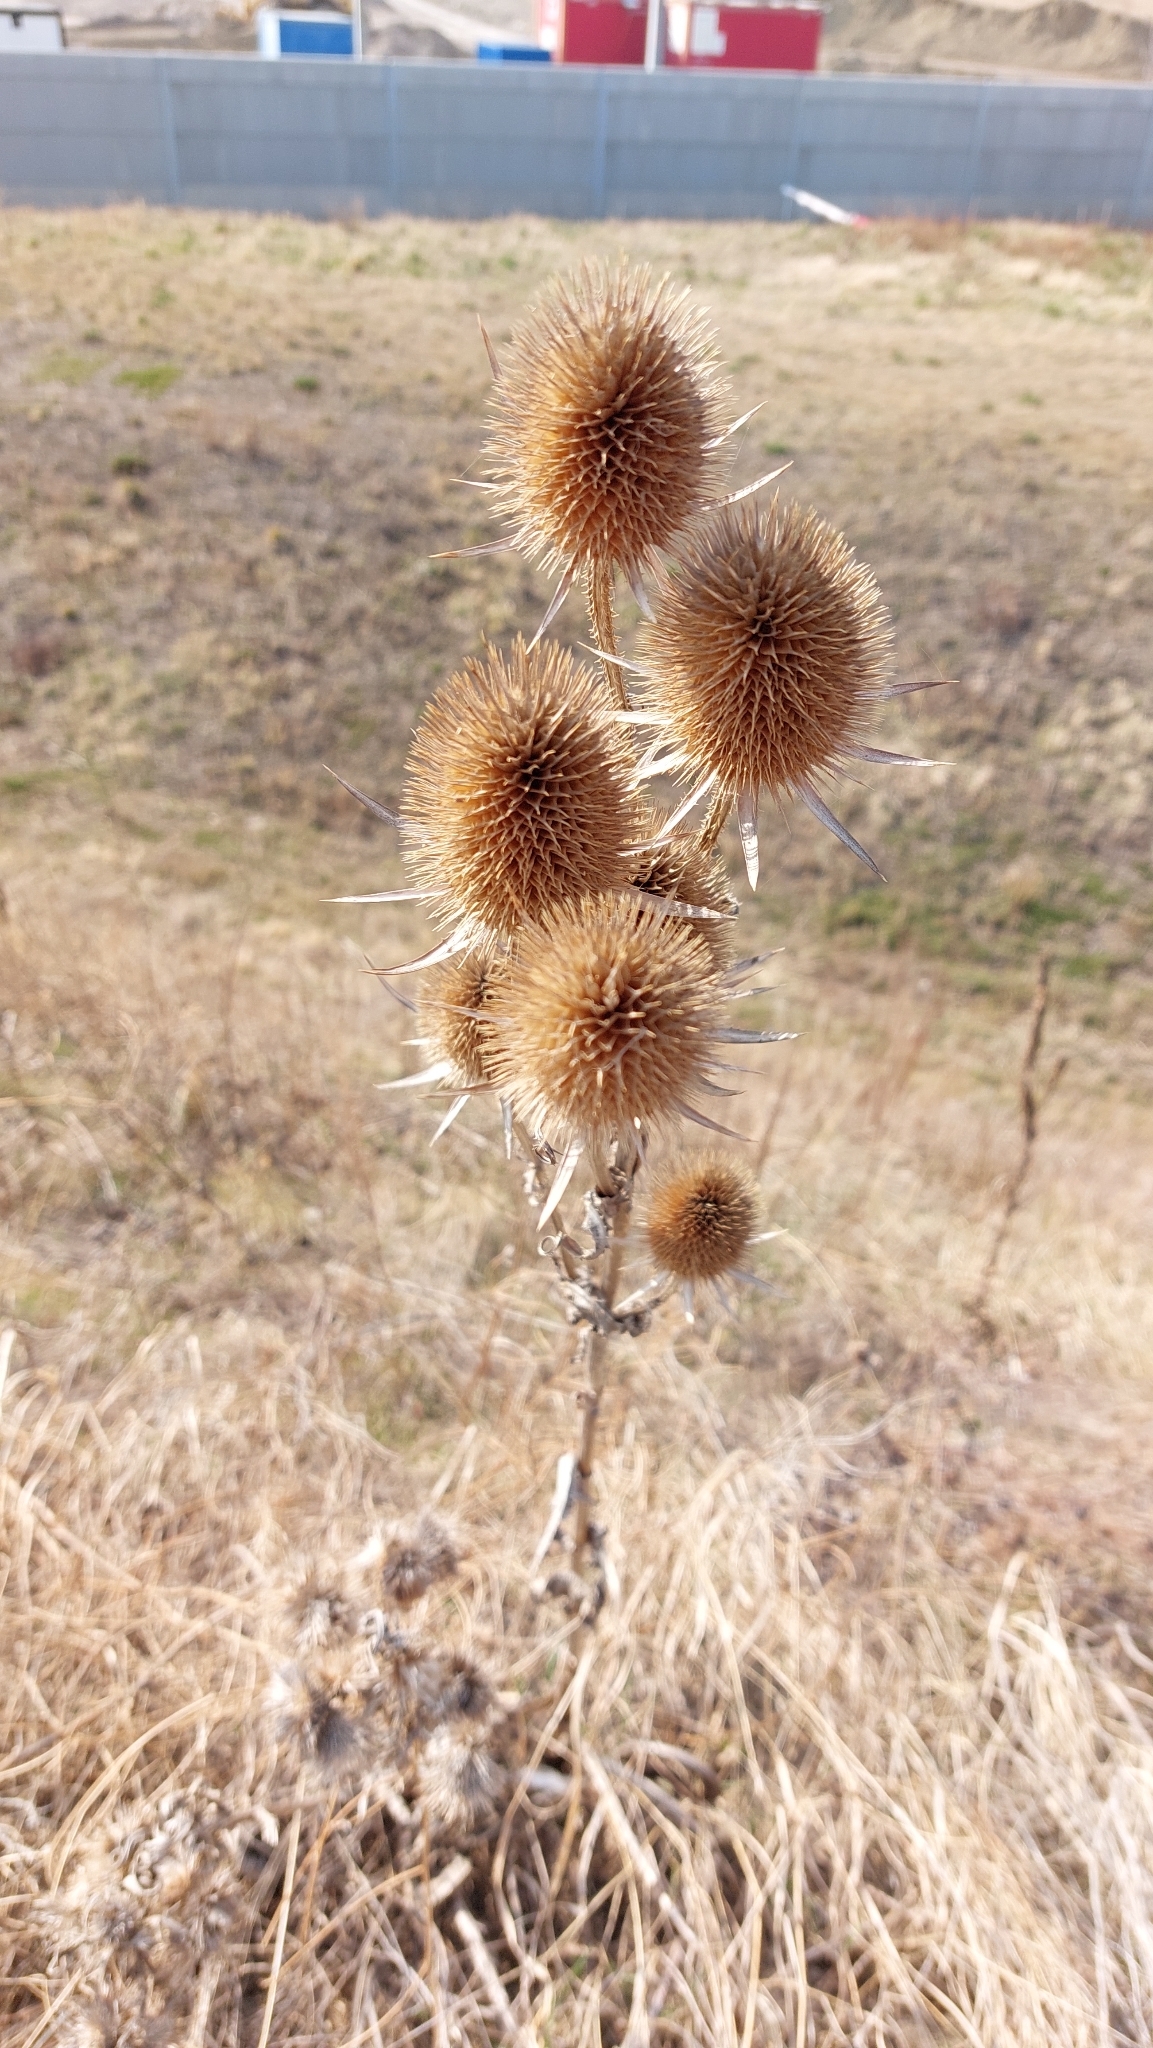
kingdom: Plantae
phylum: Tracheophyta
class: Magnoliopsida
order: Dipsacales
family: Caprifoliaceae
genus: Dipsacus
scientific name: Dipsacus laciniatus
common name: Cut-leaved teasel
